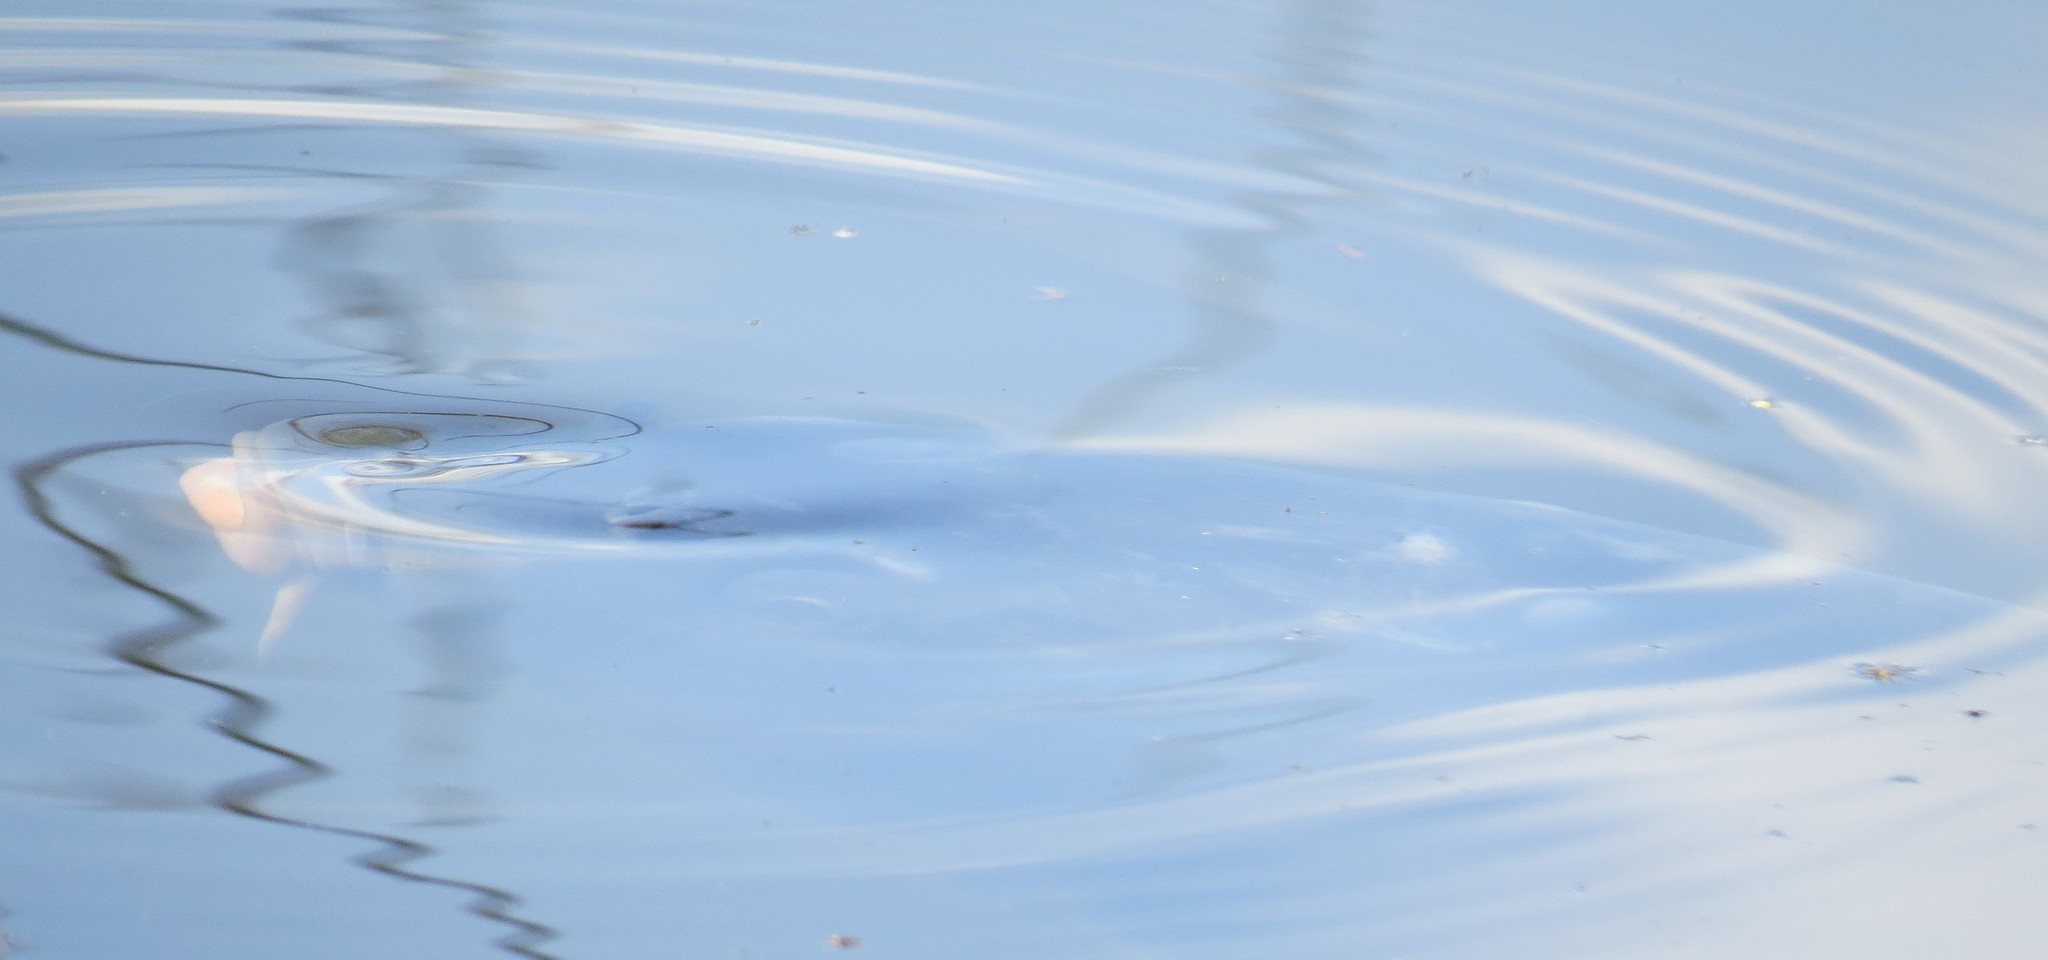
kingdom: Animalia
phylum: Chordata
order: Cypriniformes
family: Cyprinidae
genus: Cyprinus
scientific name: Cyprinus carpio
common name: Common carp
